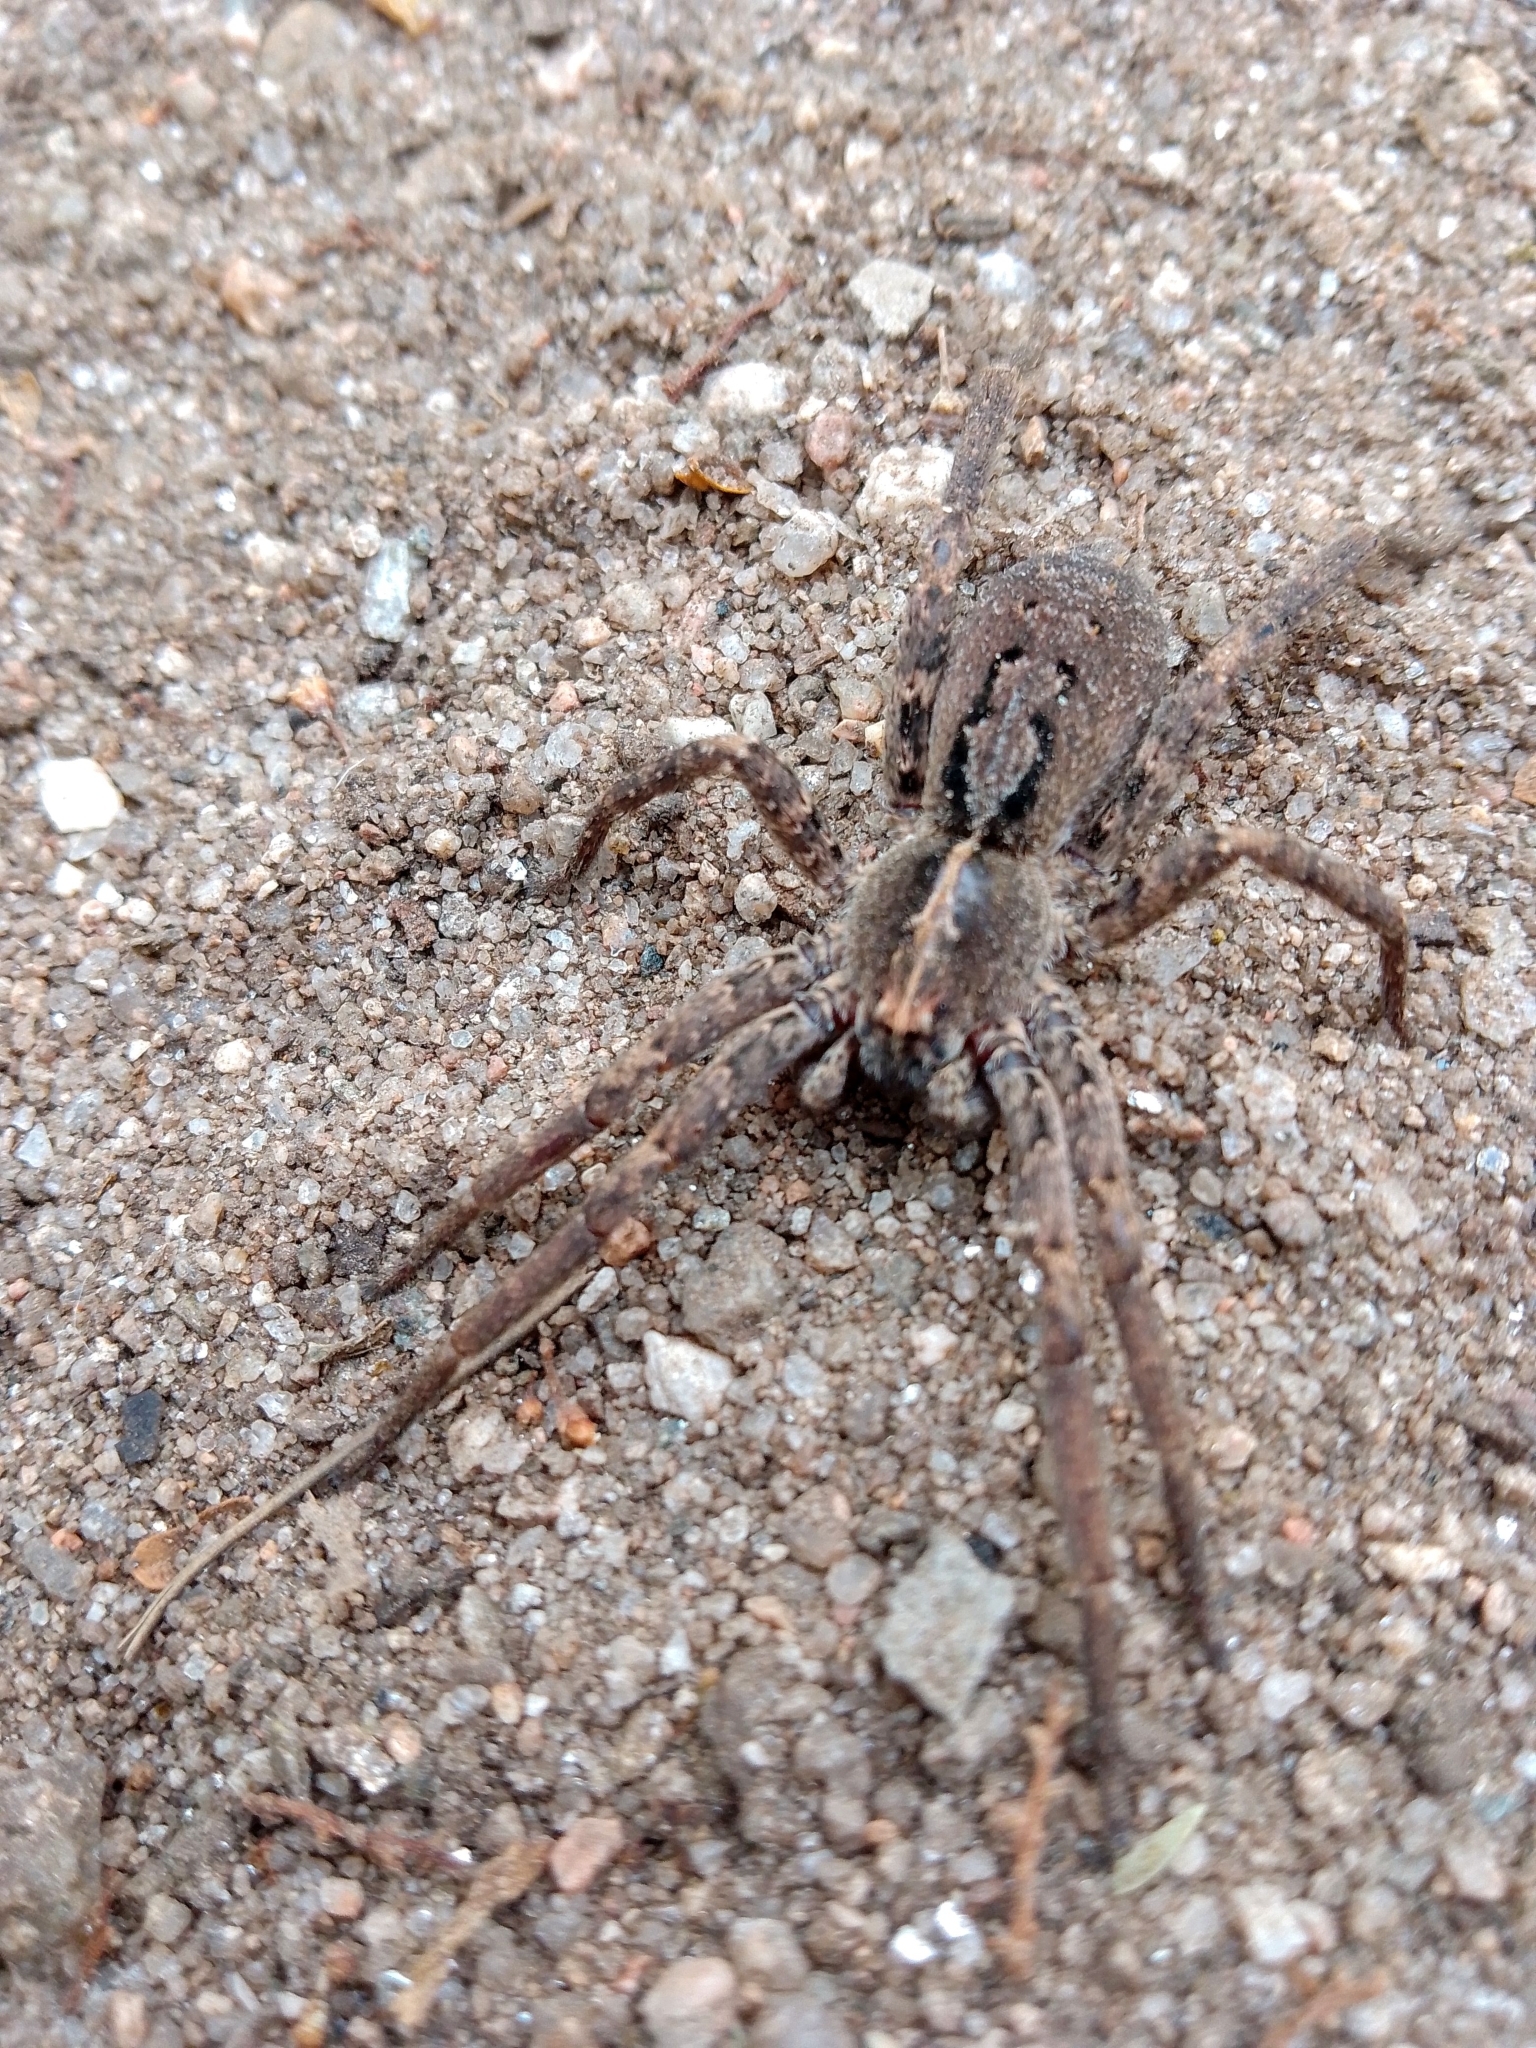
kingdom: Animalia
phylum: Arthropoda
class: Arachnida
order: Araneae
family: Ctenidae
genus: Parabatinga
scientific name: Parabatinga brevipes
